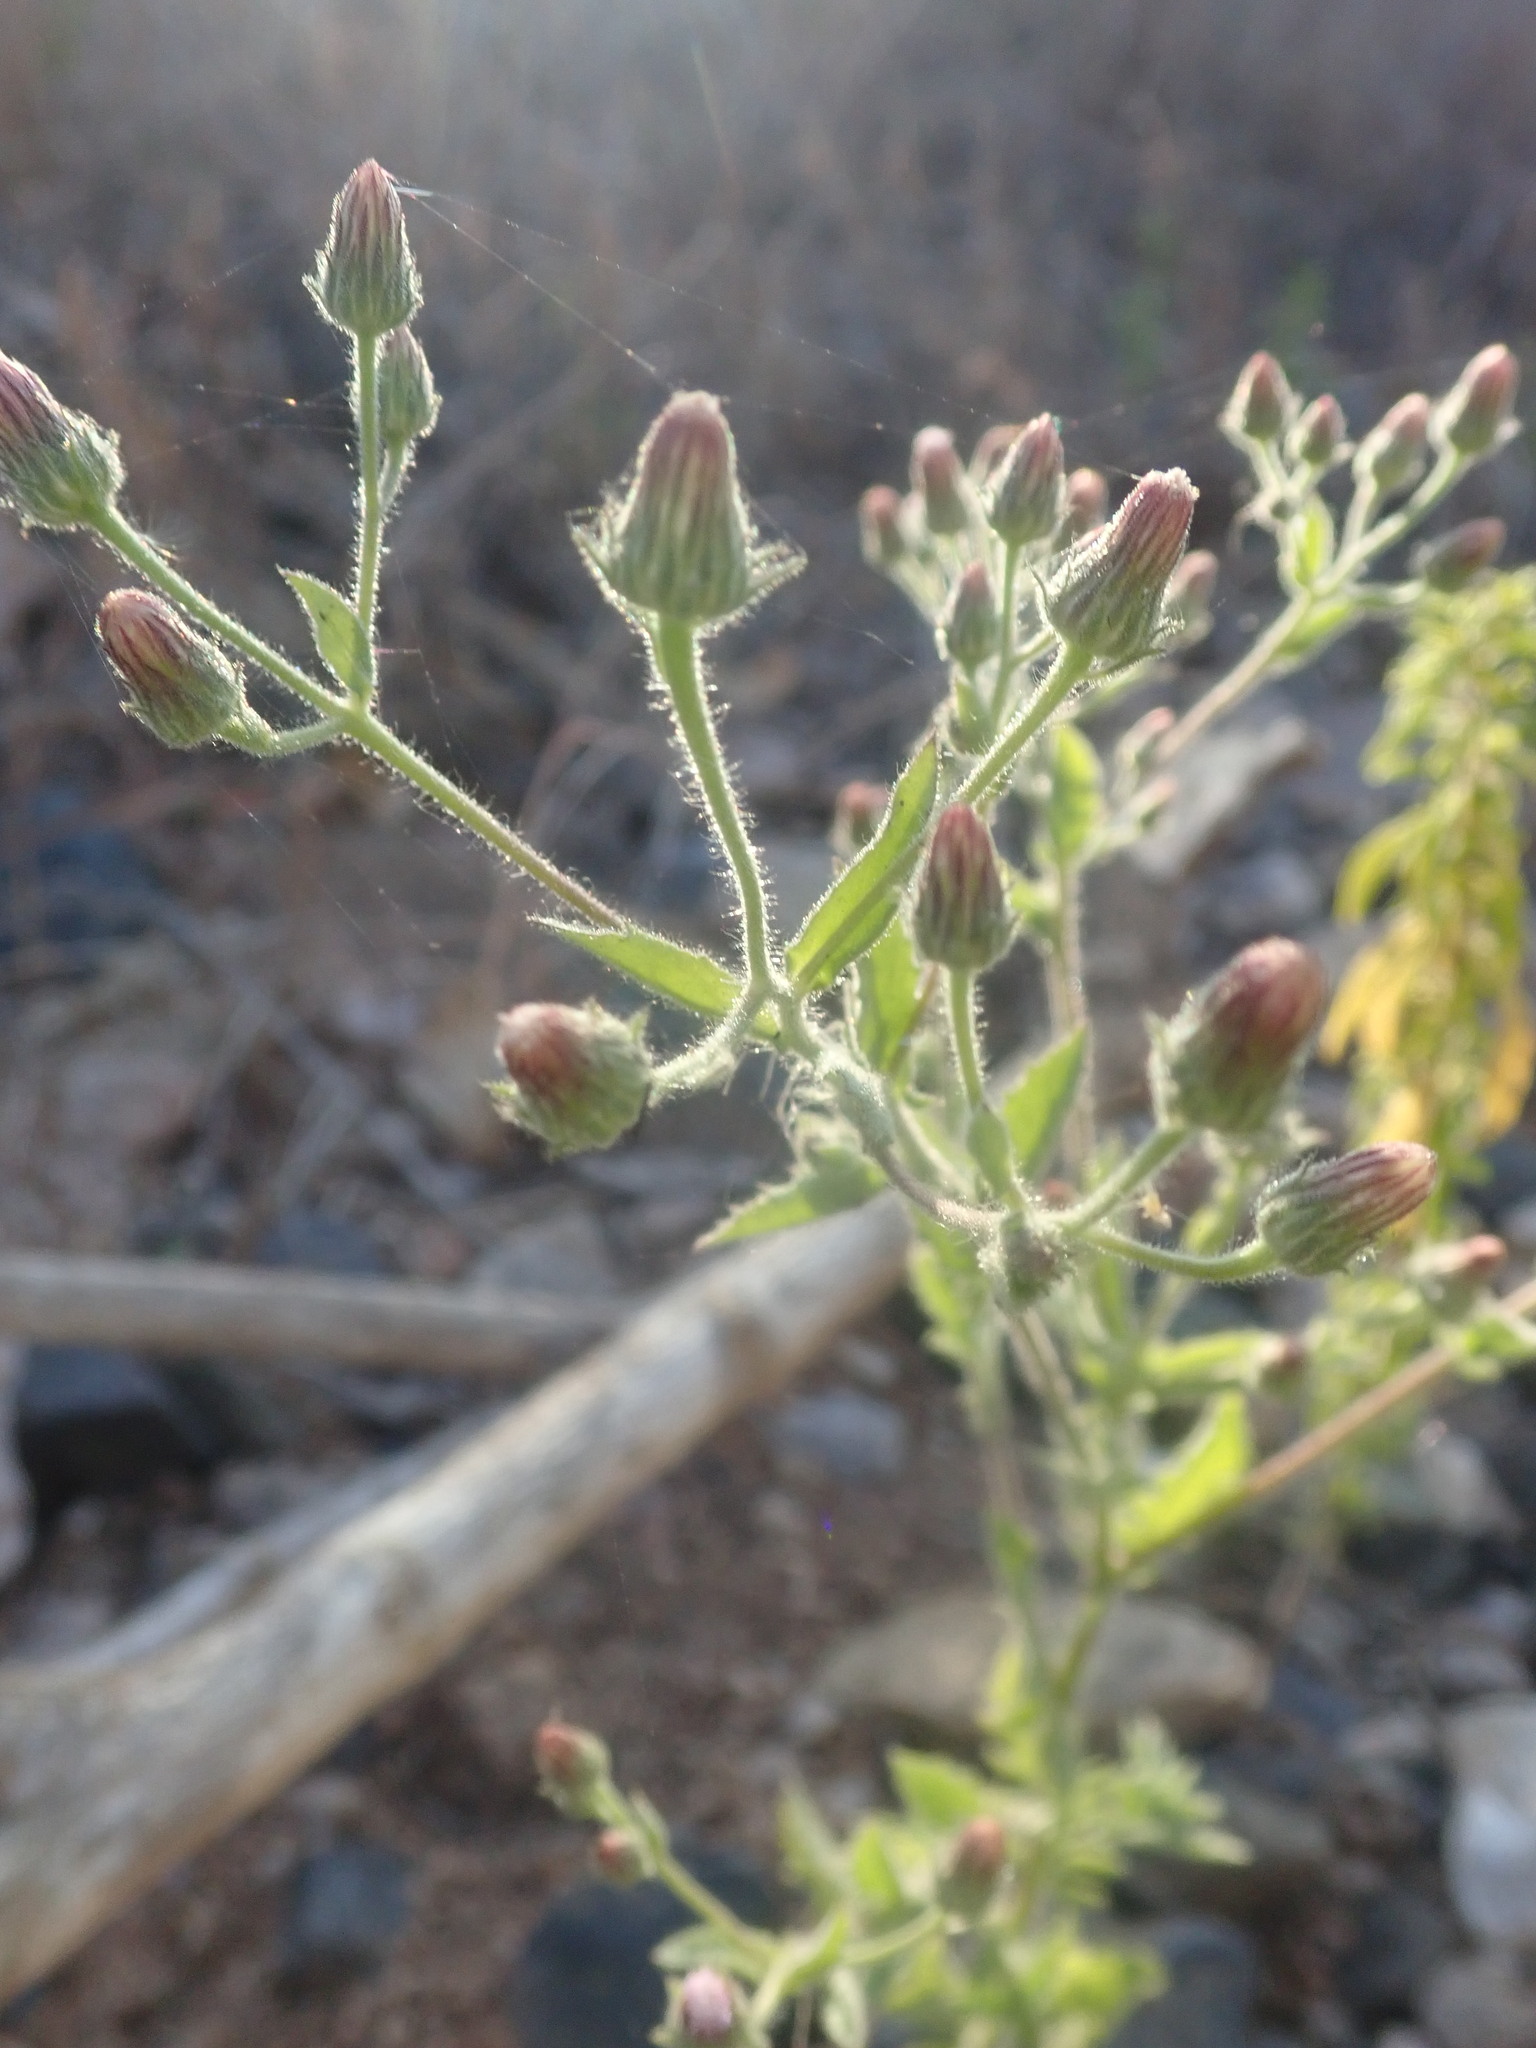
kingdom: Plantae
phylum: Tracheophyta
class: Magnoliopsida
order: Asterales
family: Asteraceae
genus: Pseudoconyza
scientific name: Pseudoconyza viscosa
